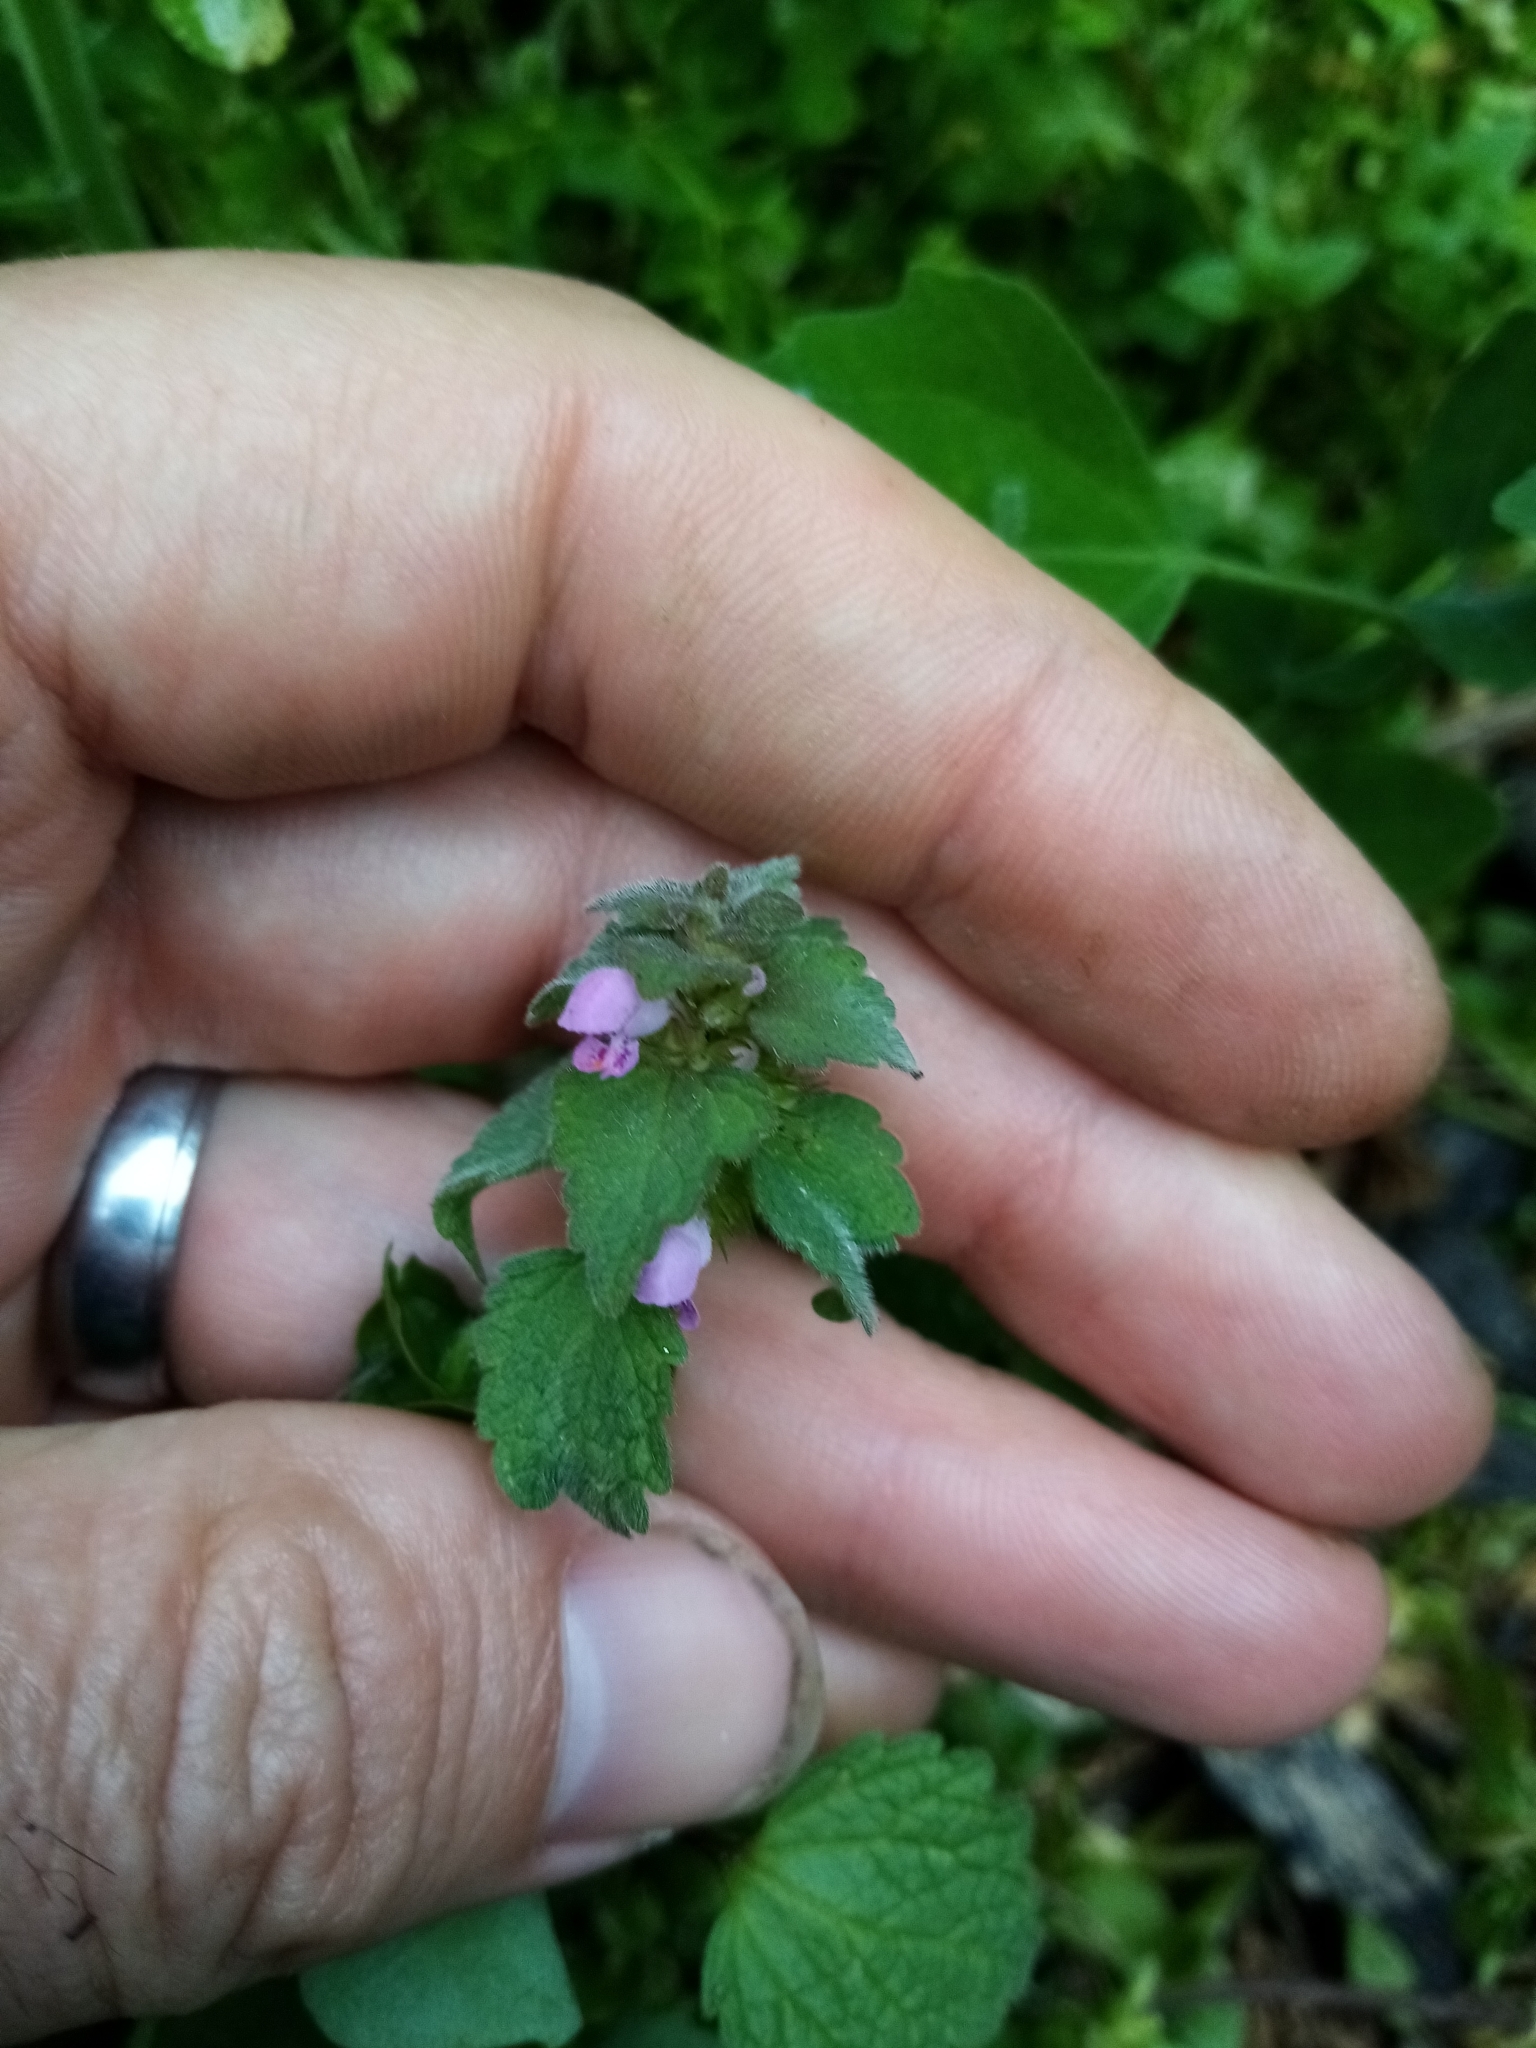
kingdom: Plantae
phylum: Tracheophyta
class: Magnoliopsida
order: Lamiales
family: Lamiaceae
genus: Lamium
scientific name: Lamium purpureum
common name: Red dead-nettle
